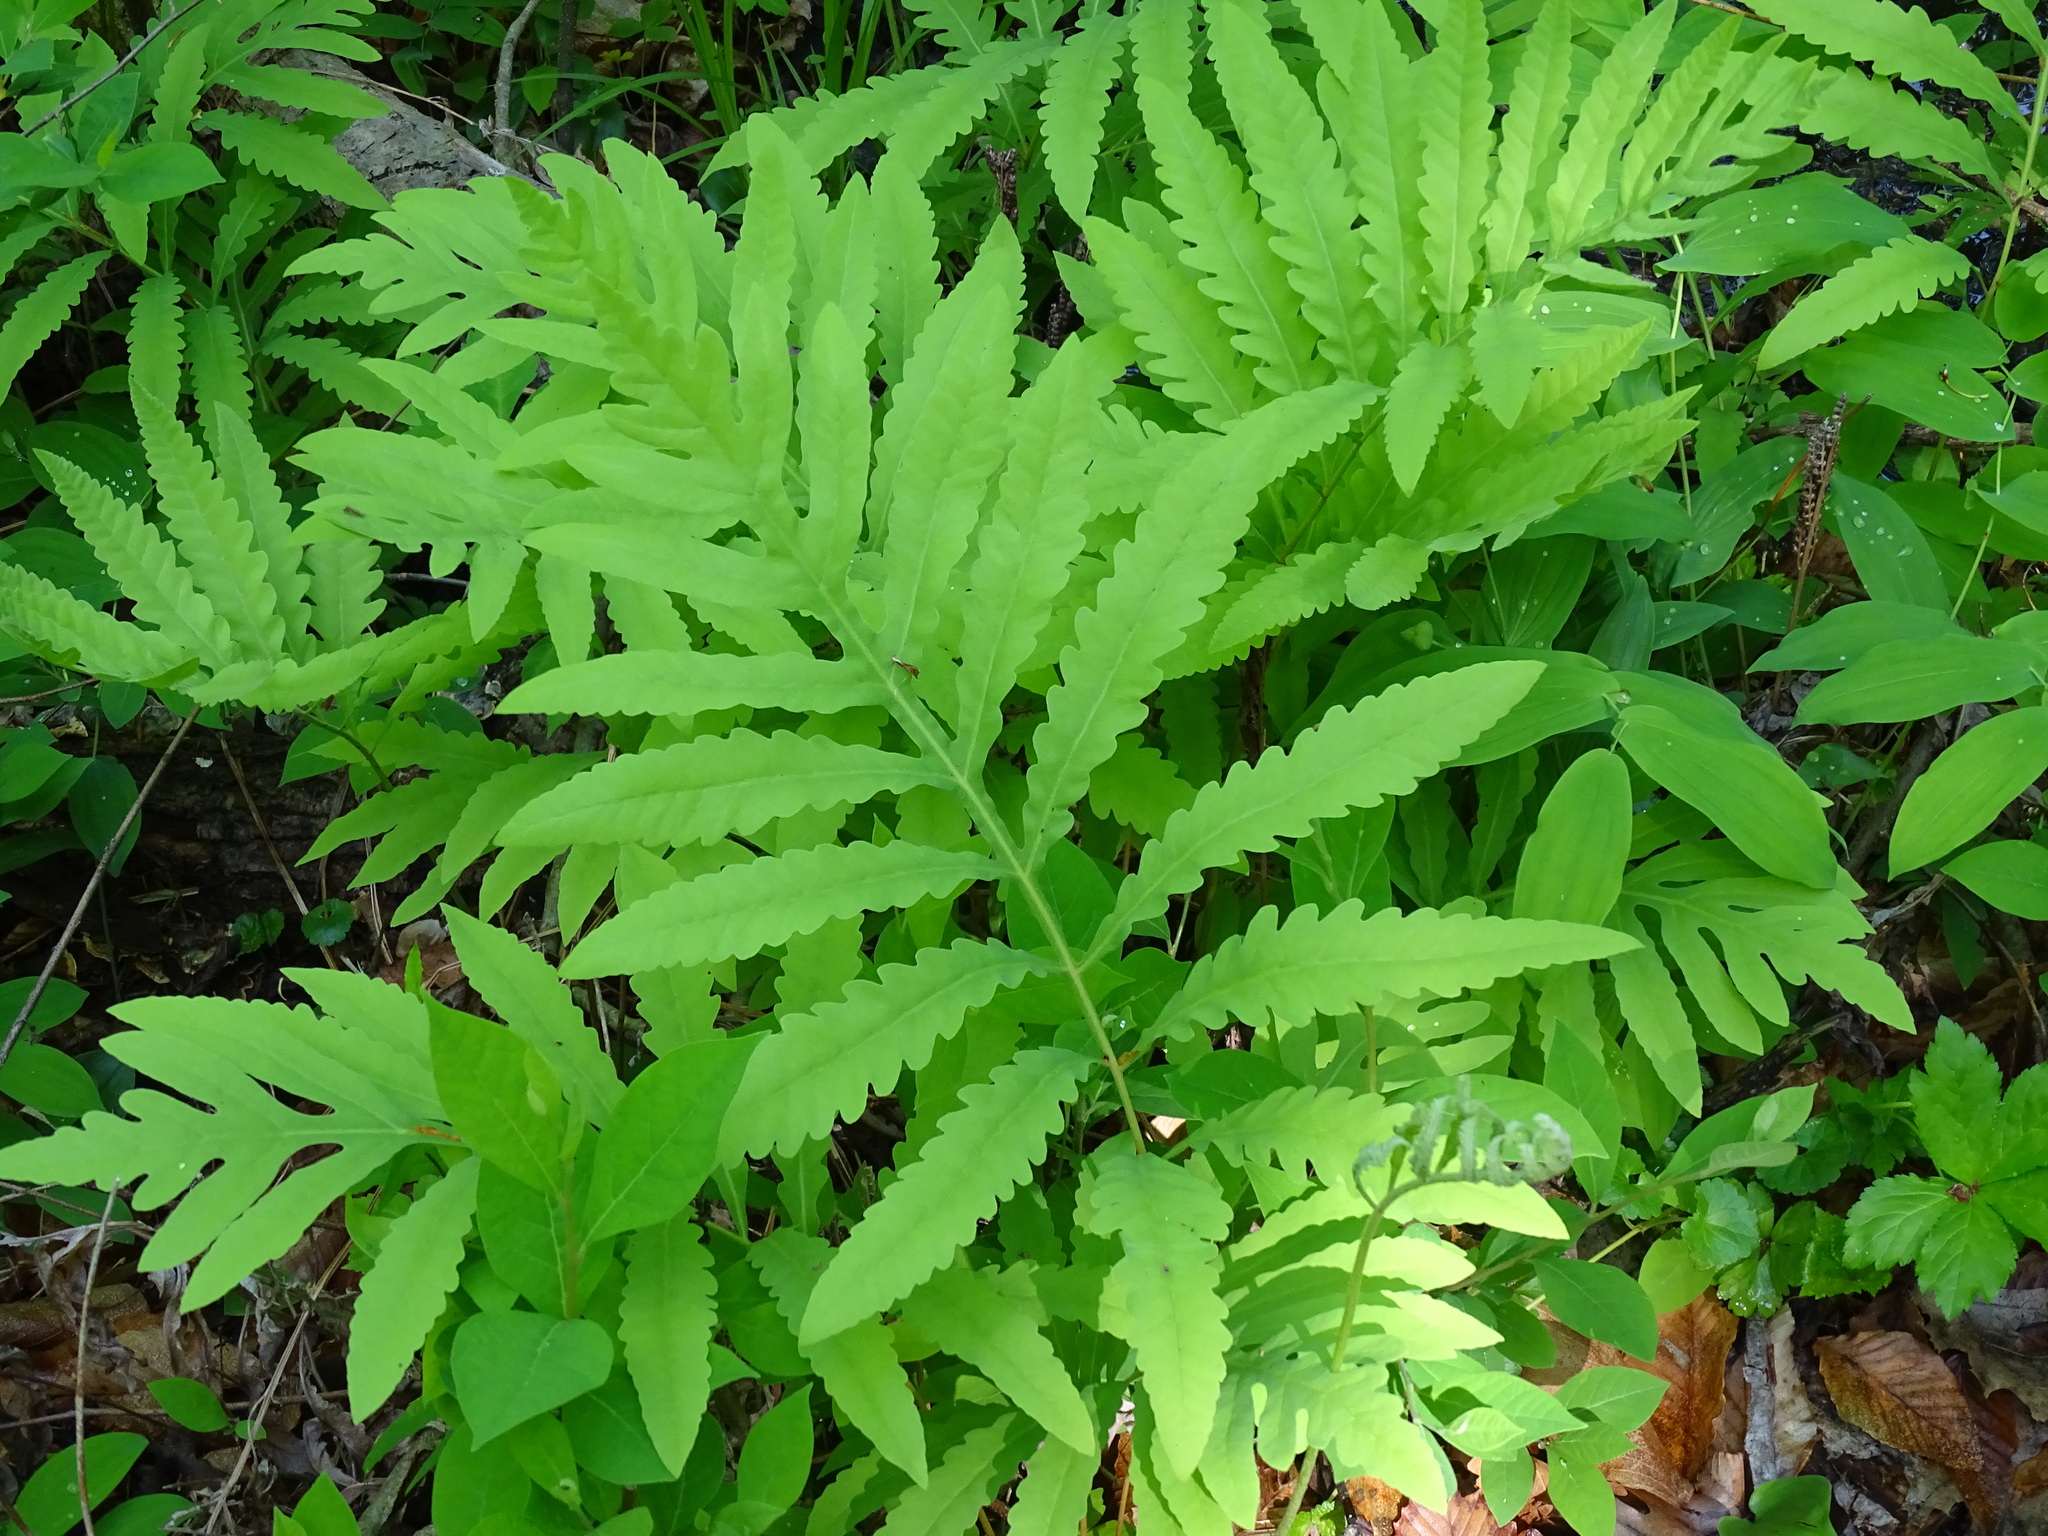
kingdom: Plantae
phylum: Tracheophyta
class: Polypodiopsida
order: Polypodiales
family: Onocleaceae
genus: Onoclea
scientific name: Onoclea sensibilis
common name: Sensitive fern
